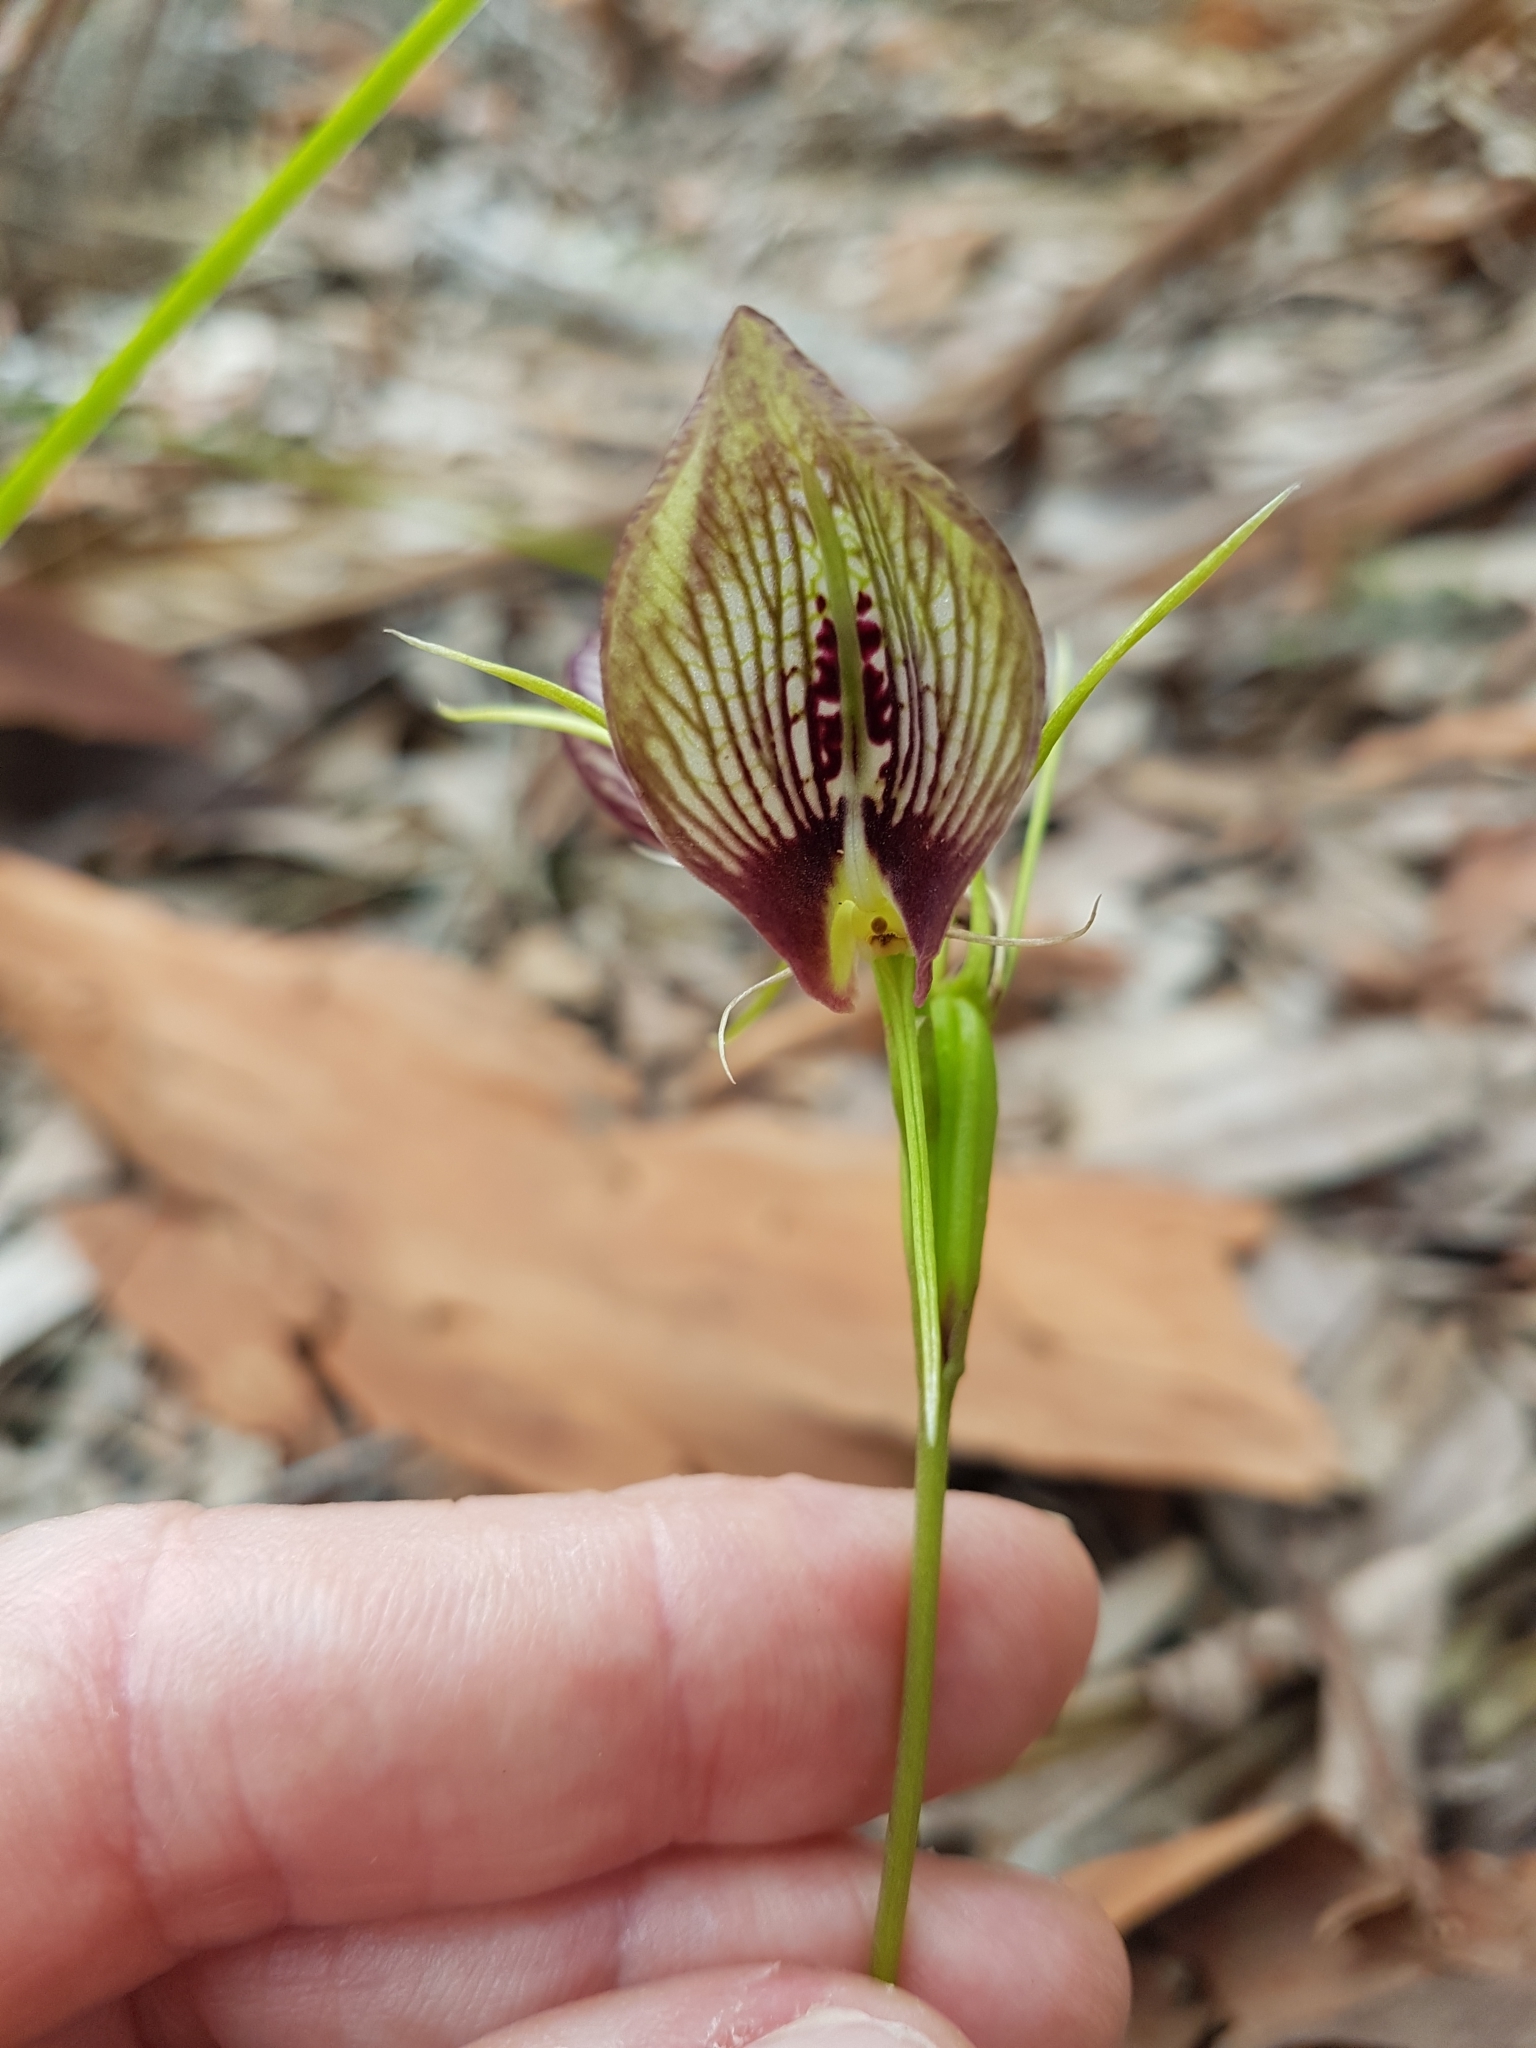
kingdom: Plantae
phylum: Tracheophyta
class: Liliopsida
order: Asparagales
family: Orchidaceae
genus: Cryptostylis
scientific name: Cryptostylis erecta
